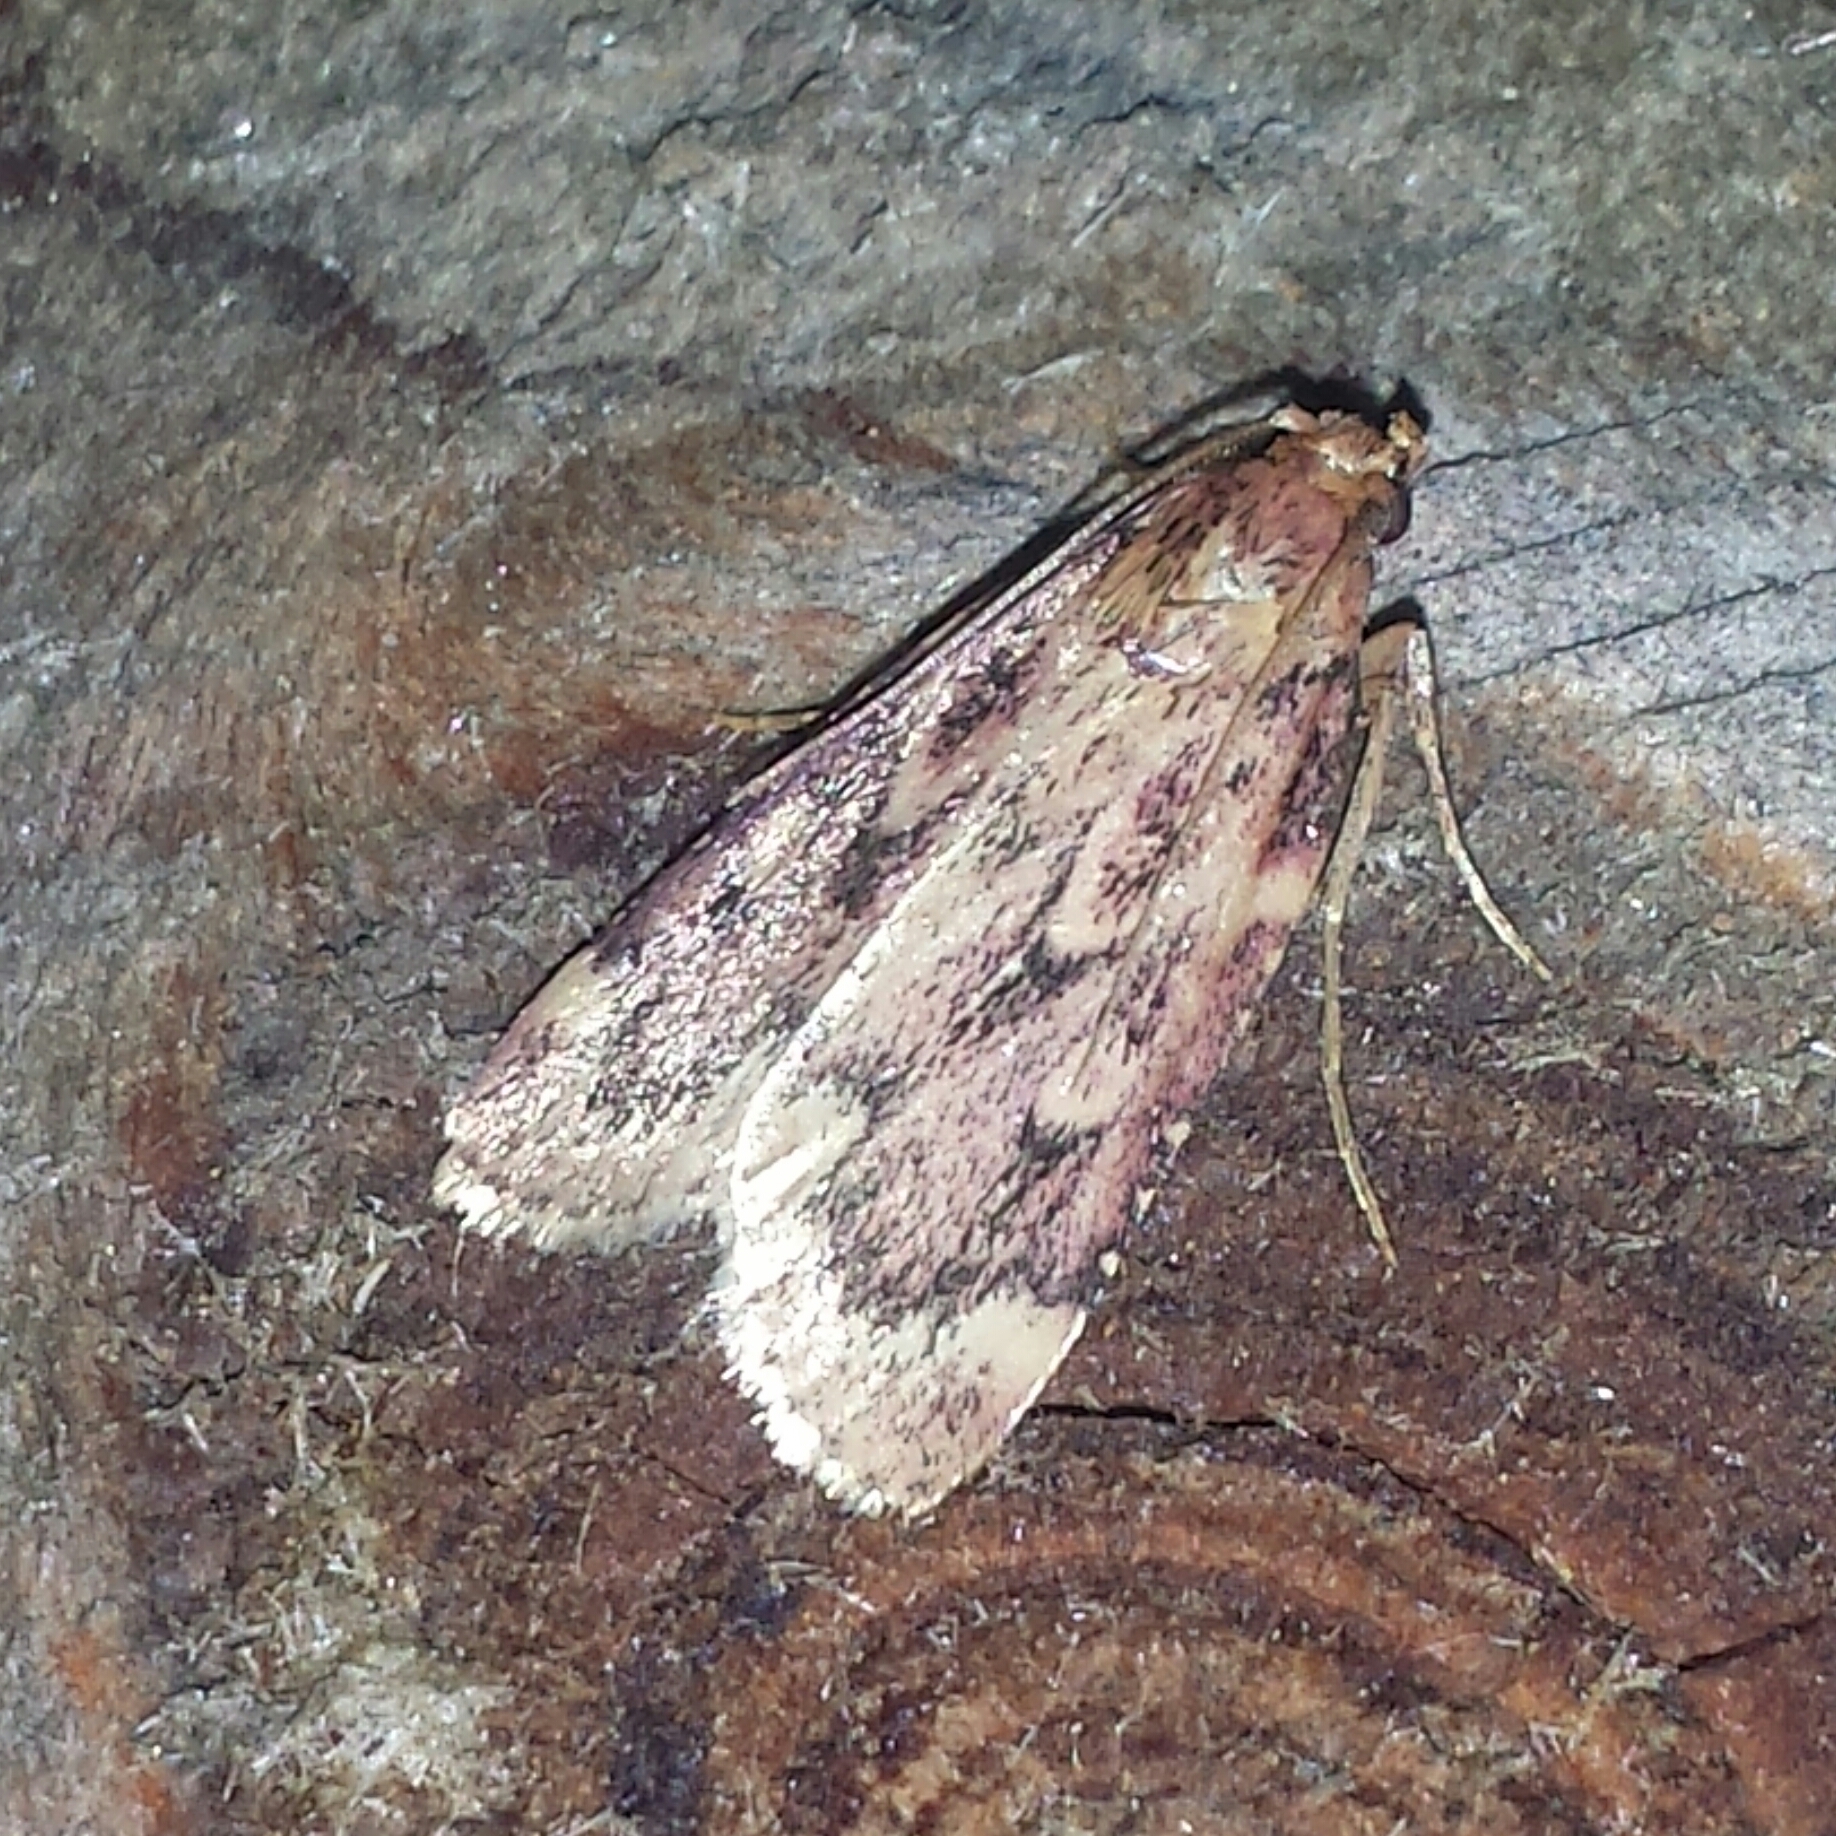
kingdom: Animalia
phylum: Arthropoda
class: Insecta
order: Lepidoptera
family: Pyralidae
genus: Aglossa
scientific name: Aglossa cuprina
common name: Grease moth
